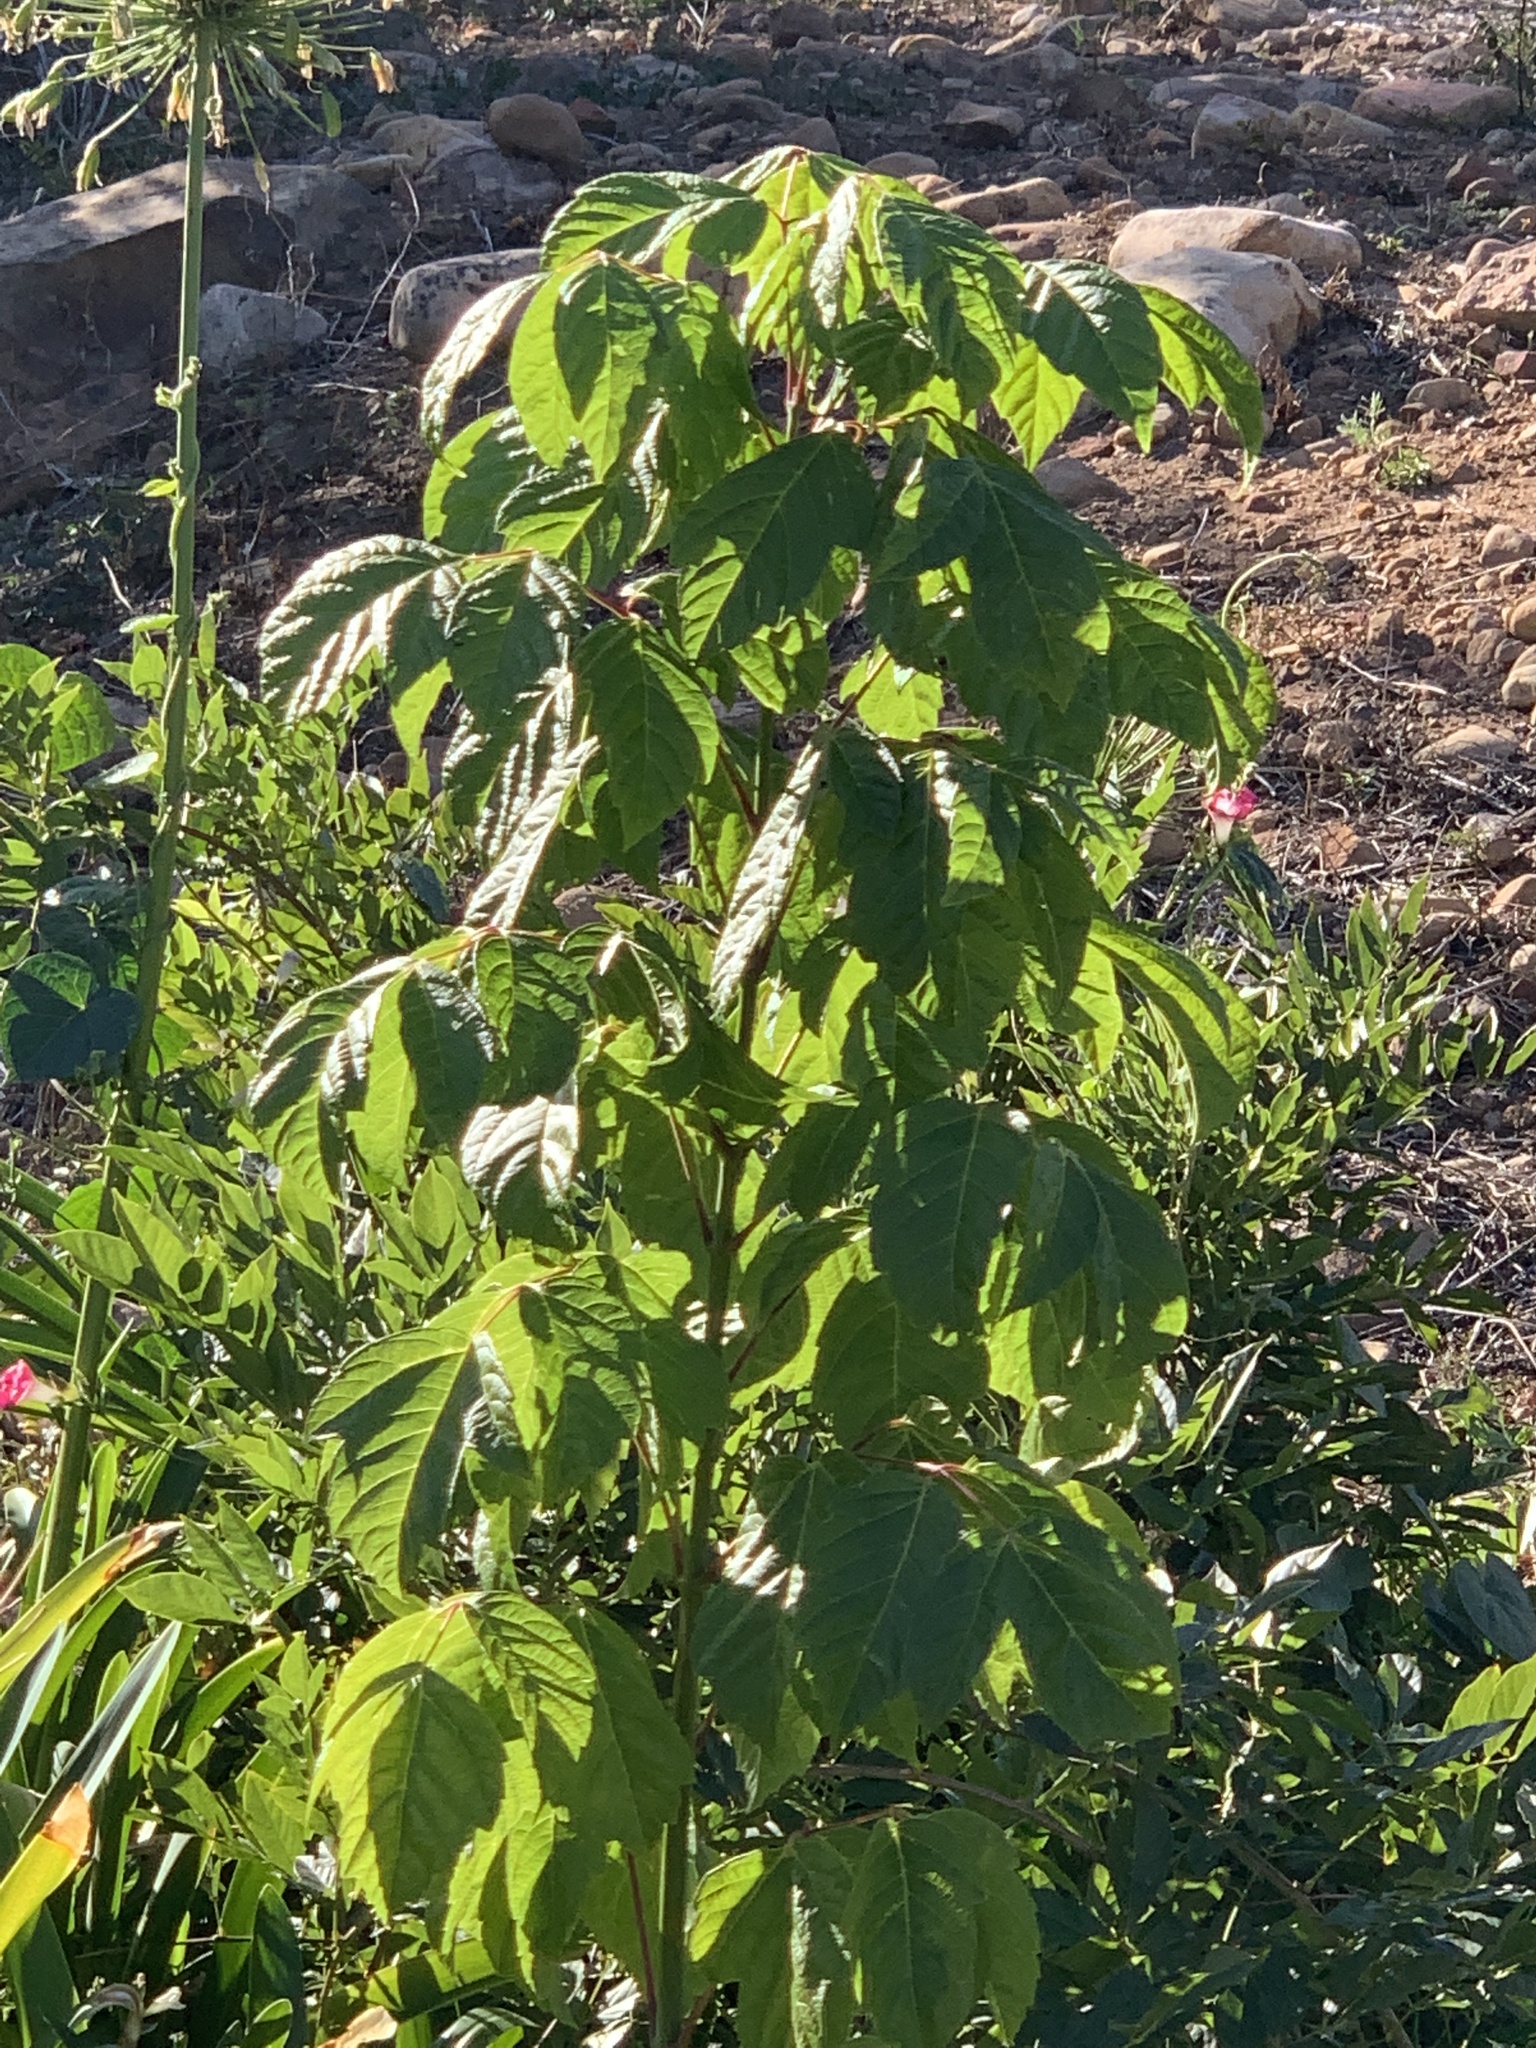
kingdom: Plantae
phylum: Tracheophyta
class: Magnoliopsida
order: Sapindales
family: Sapindaceae
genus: Acer
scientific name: Acer negundo
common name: Ashleaf maple
